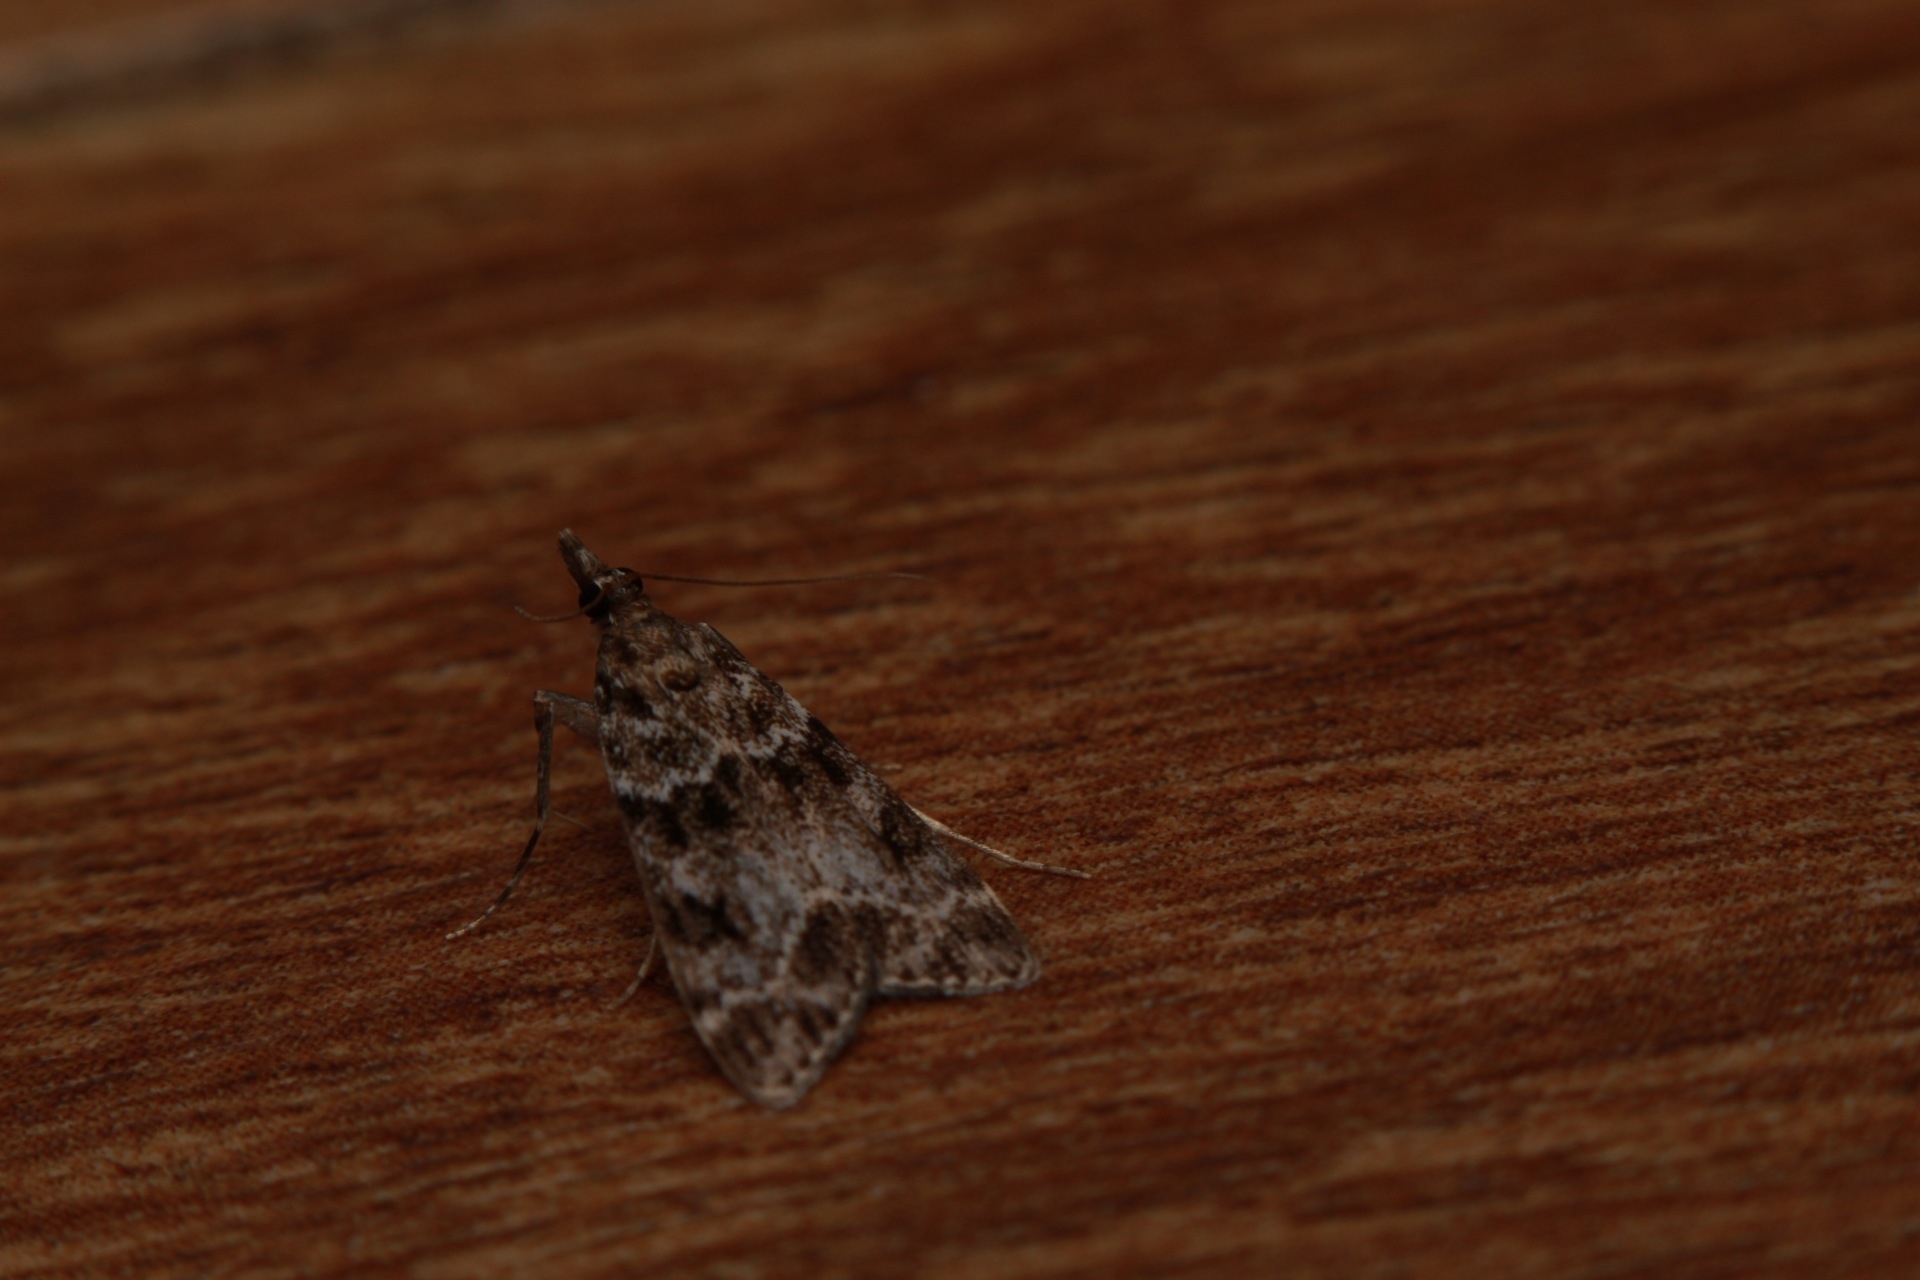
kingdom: Animalia
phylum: Arthropoda
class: Insecta
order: Lepidoptera
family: Crambidae
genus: Eudonia
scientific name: Eudonia mercurella
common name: Small grey
